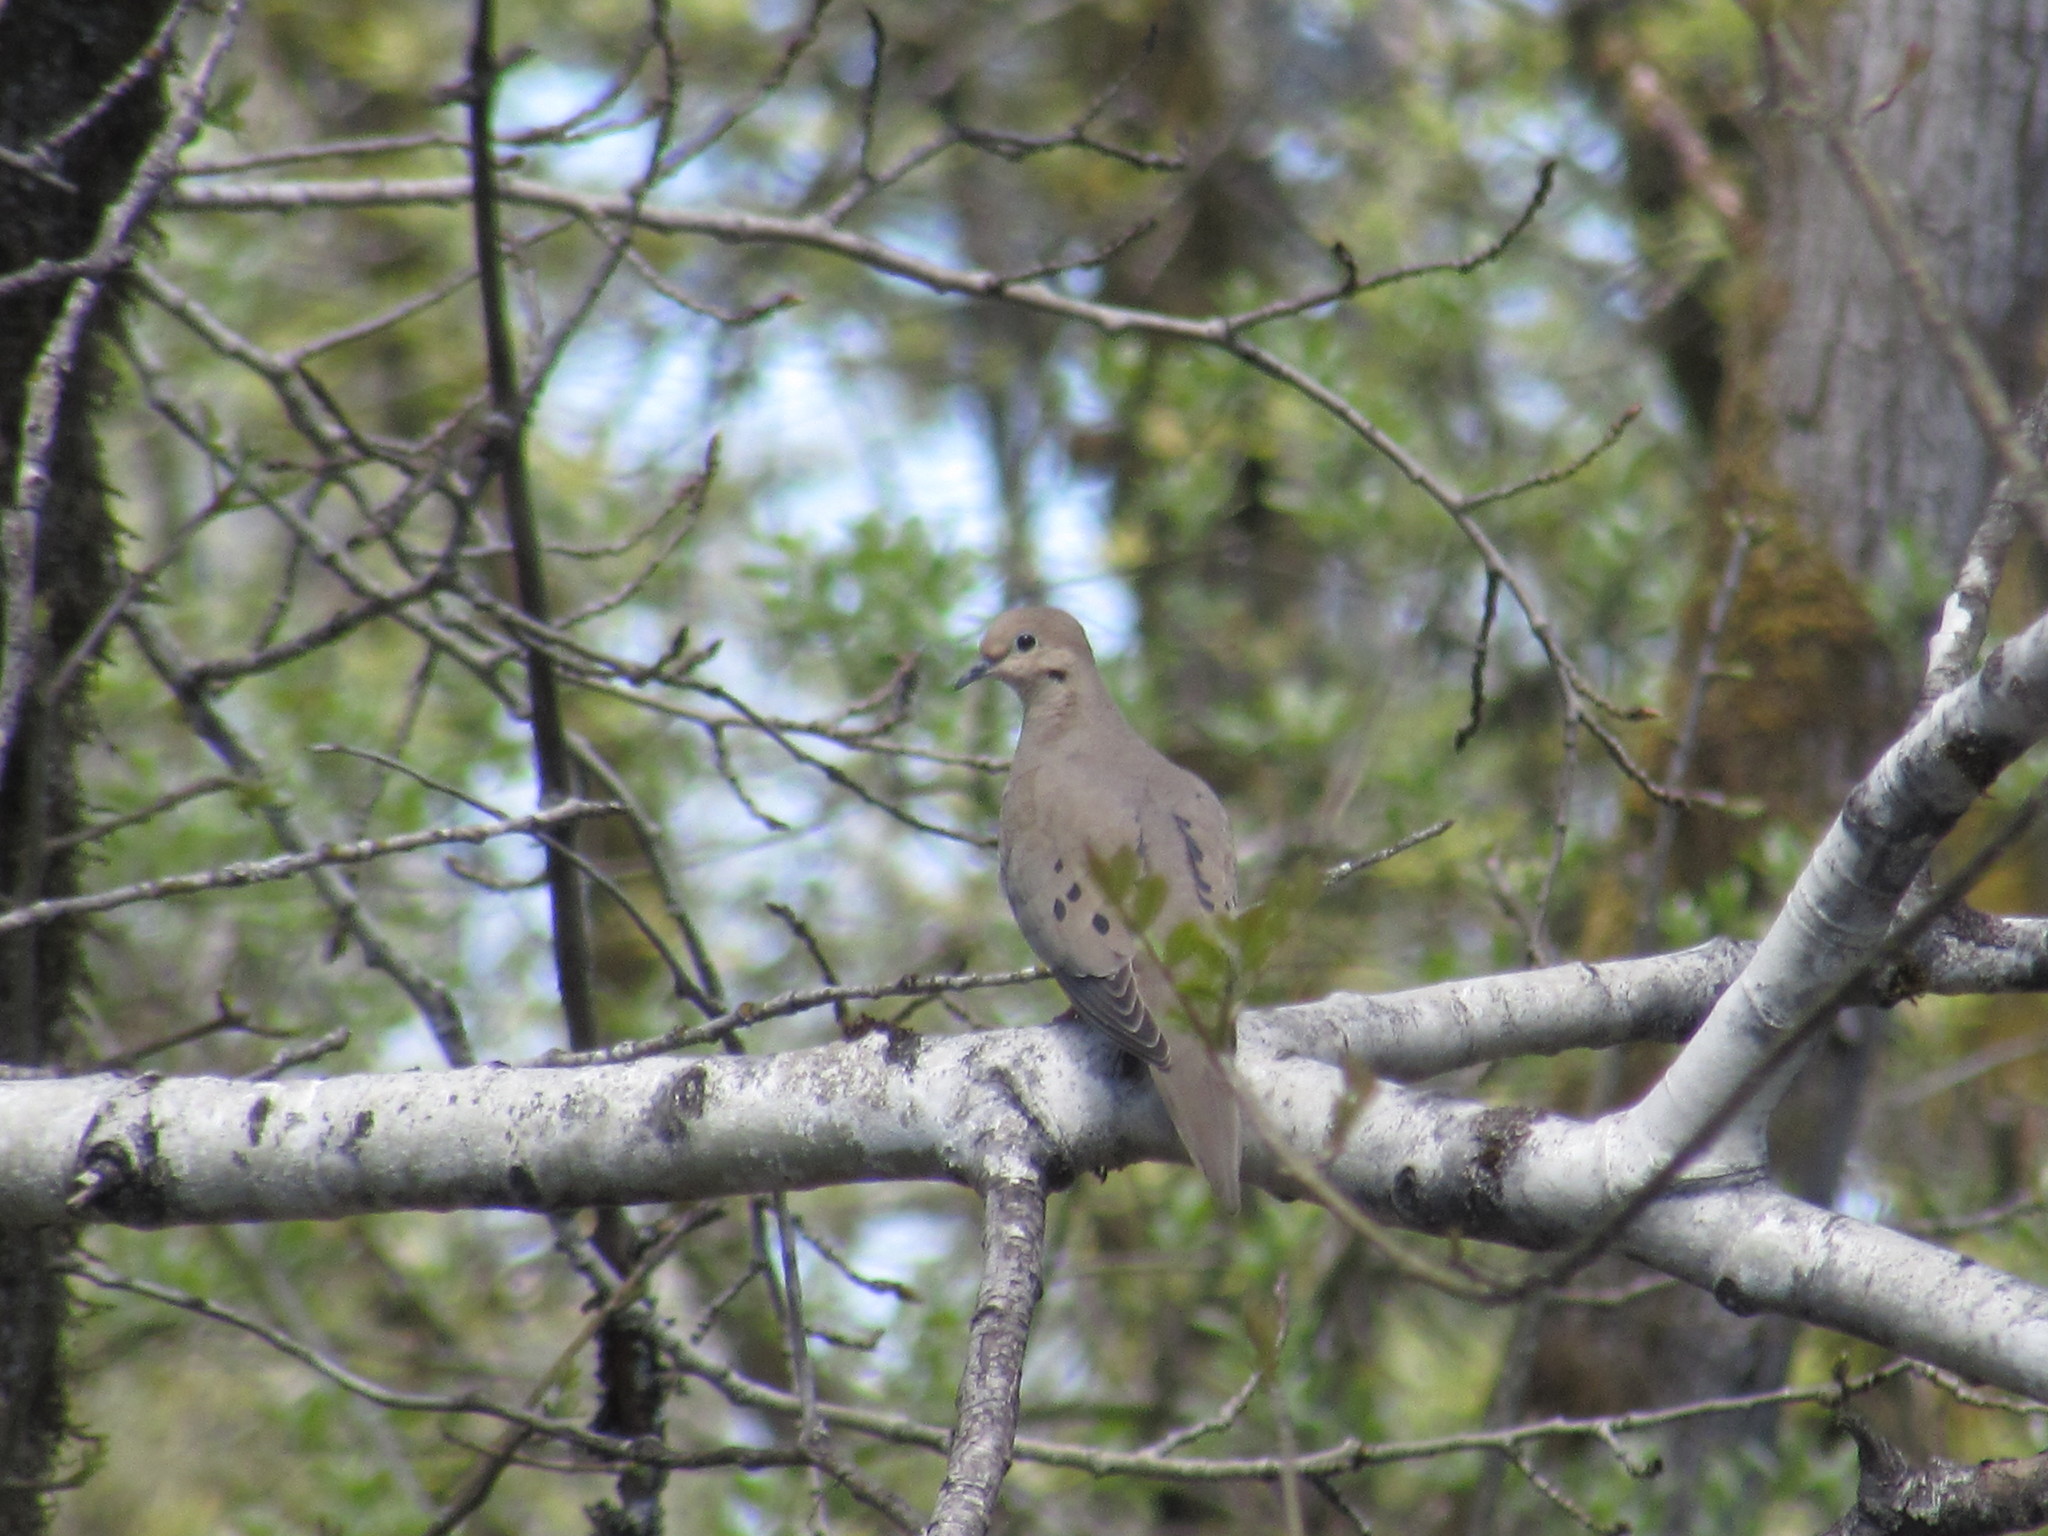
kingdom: Animalia
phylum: Chordata
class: Aves
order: Columbiformes
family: Columbidae
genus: Zenaida
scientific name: Zenaida macroura
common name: Mourning dove
